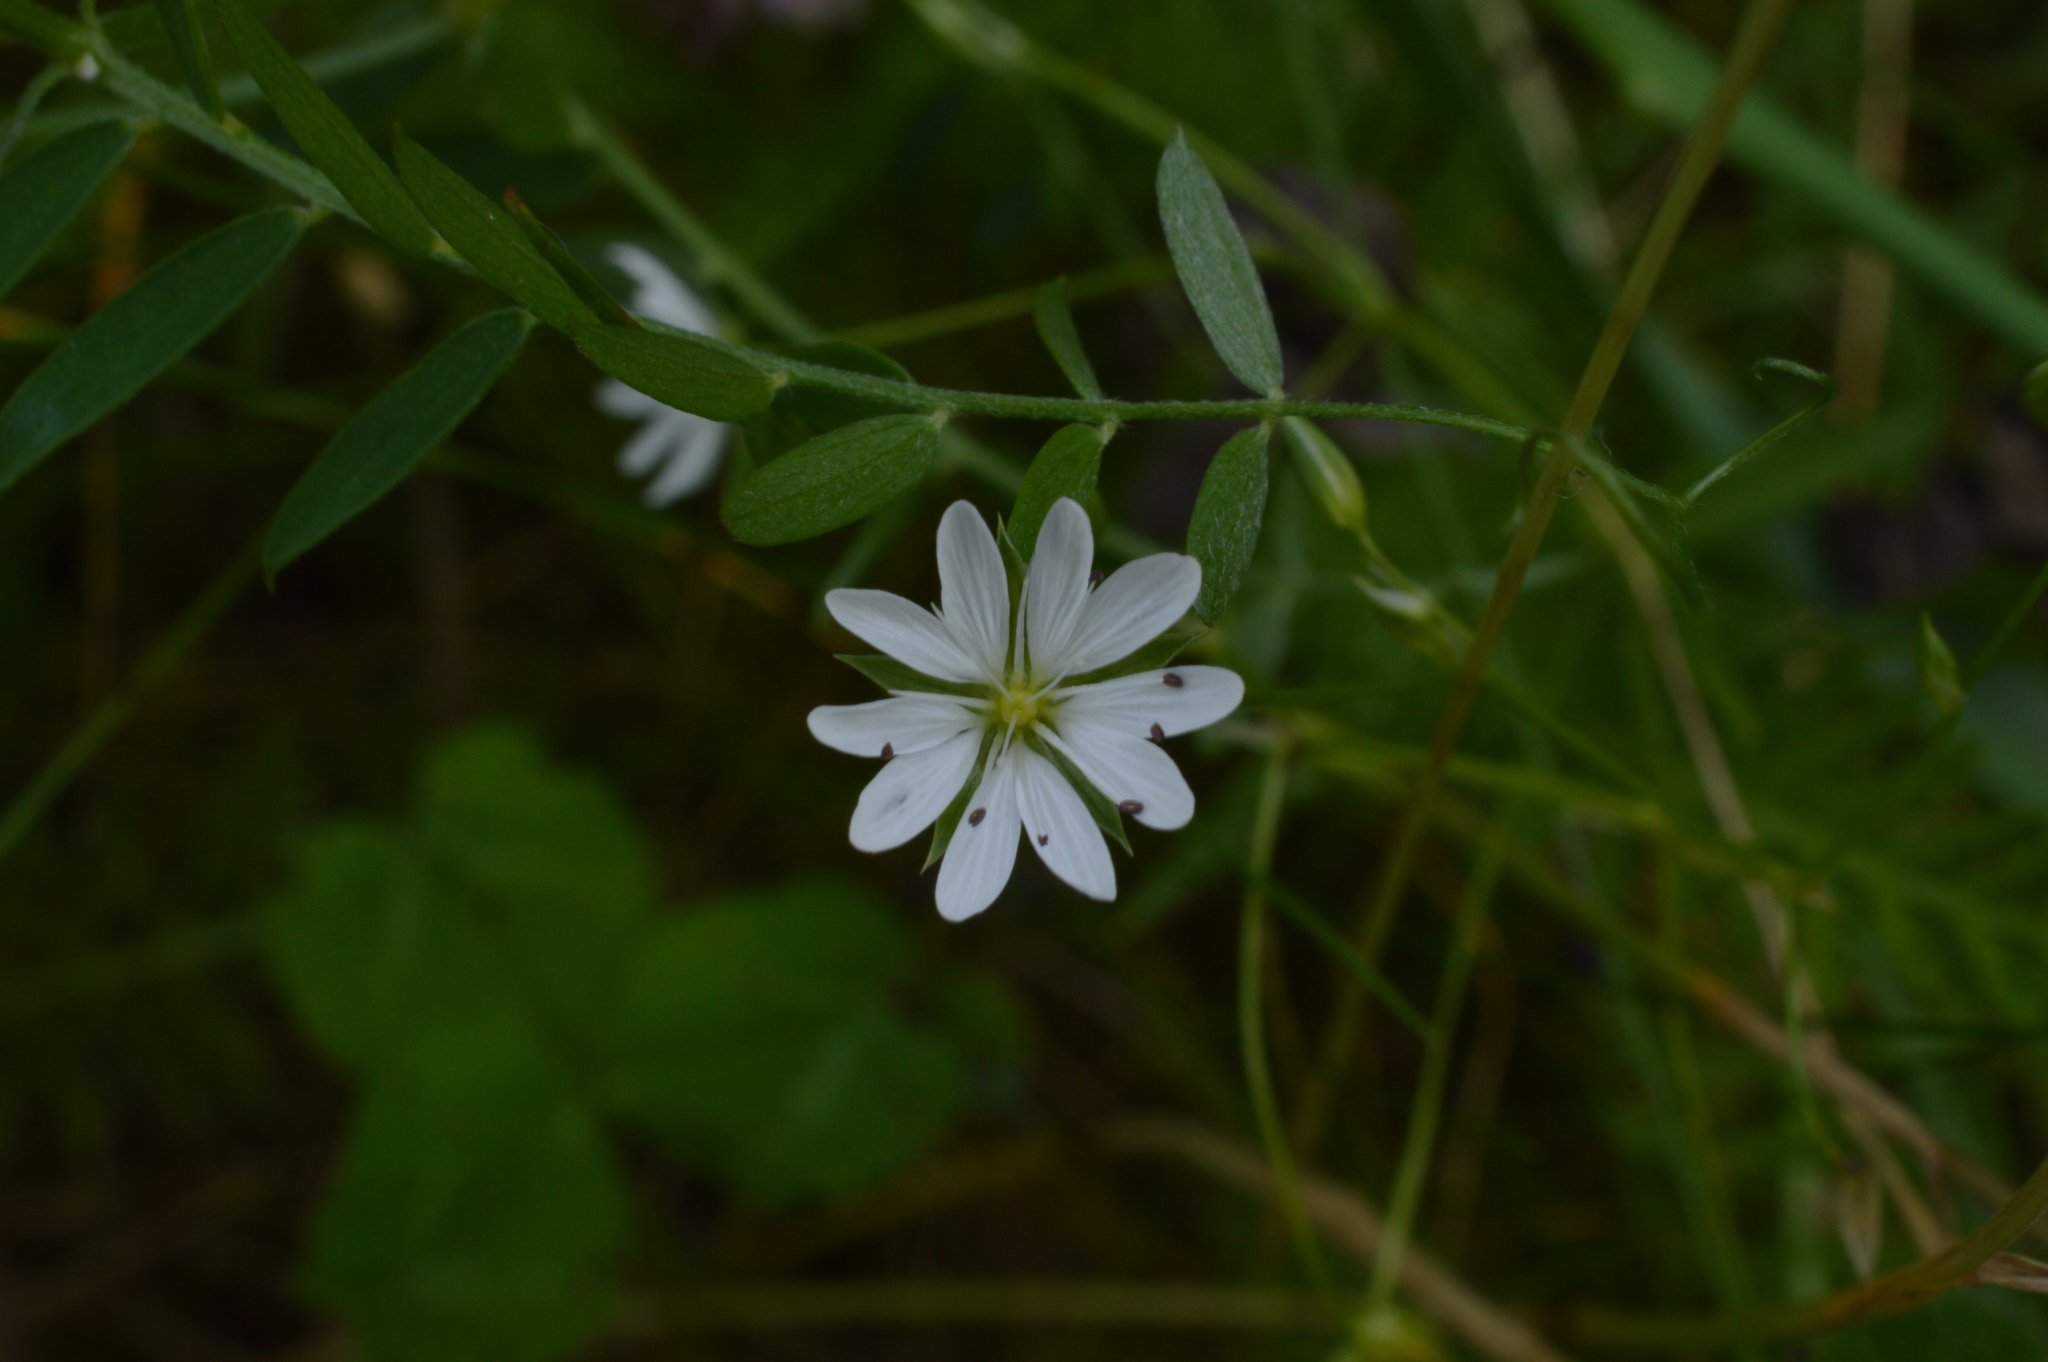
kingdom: Plantae
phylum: Tracheophyta
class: Magnoliopsida
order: Caryophyllales
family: Caryophyllaceae
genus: Stellaria
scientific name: Stellaria graminea
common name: Grass-like starwort
